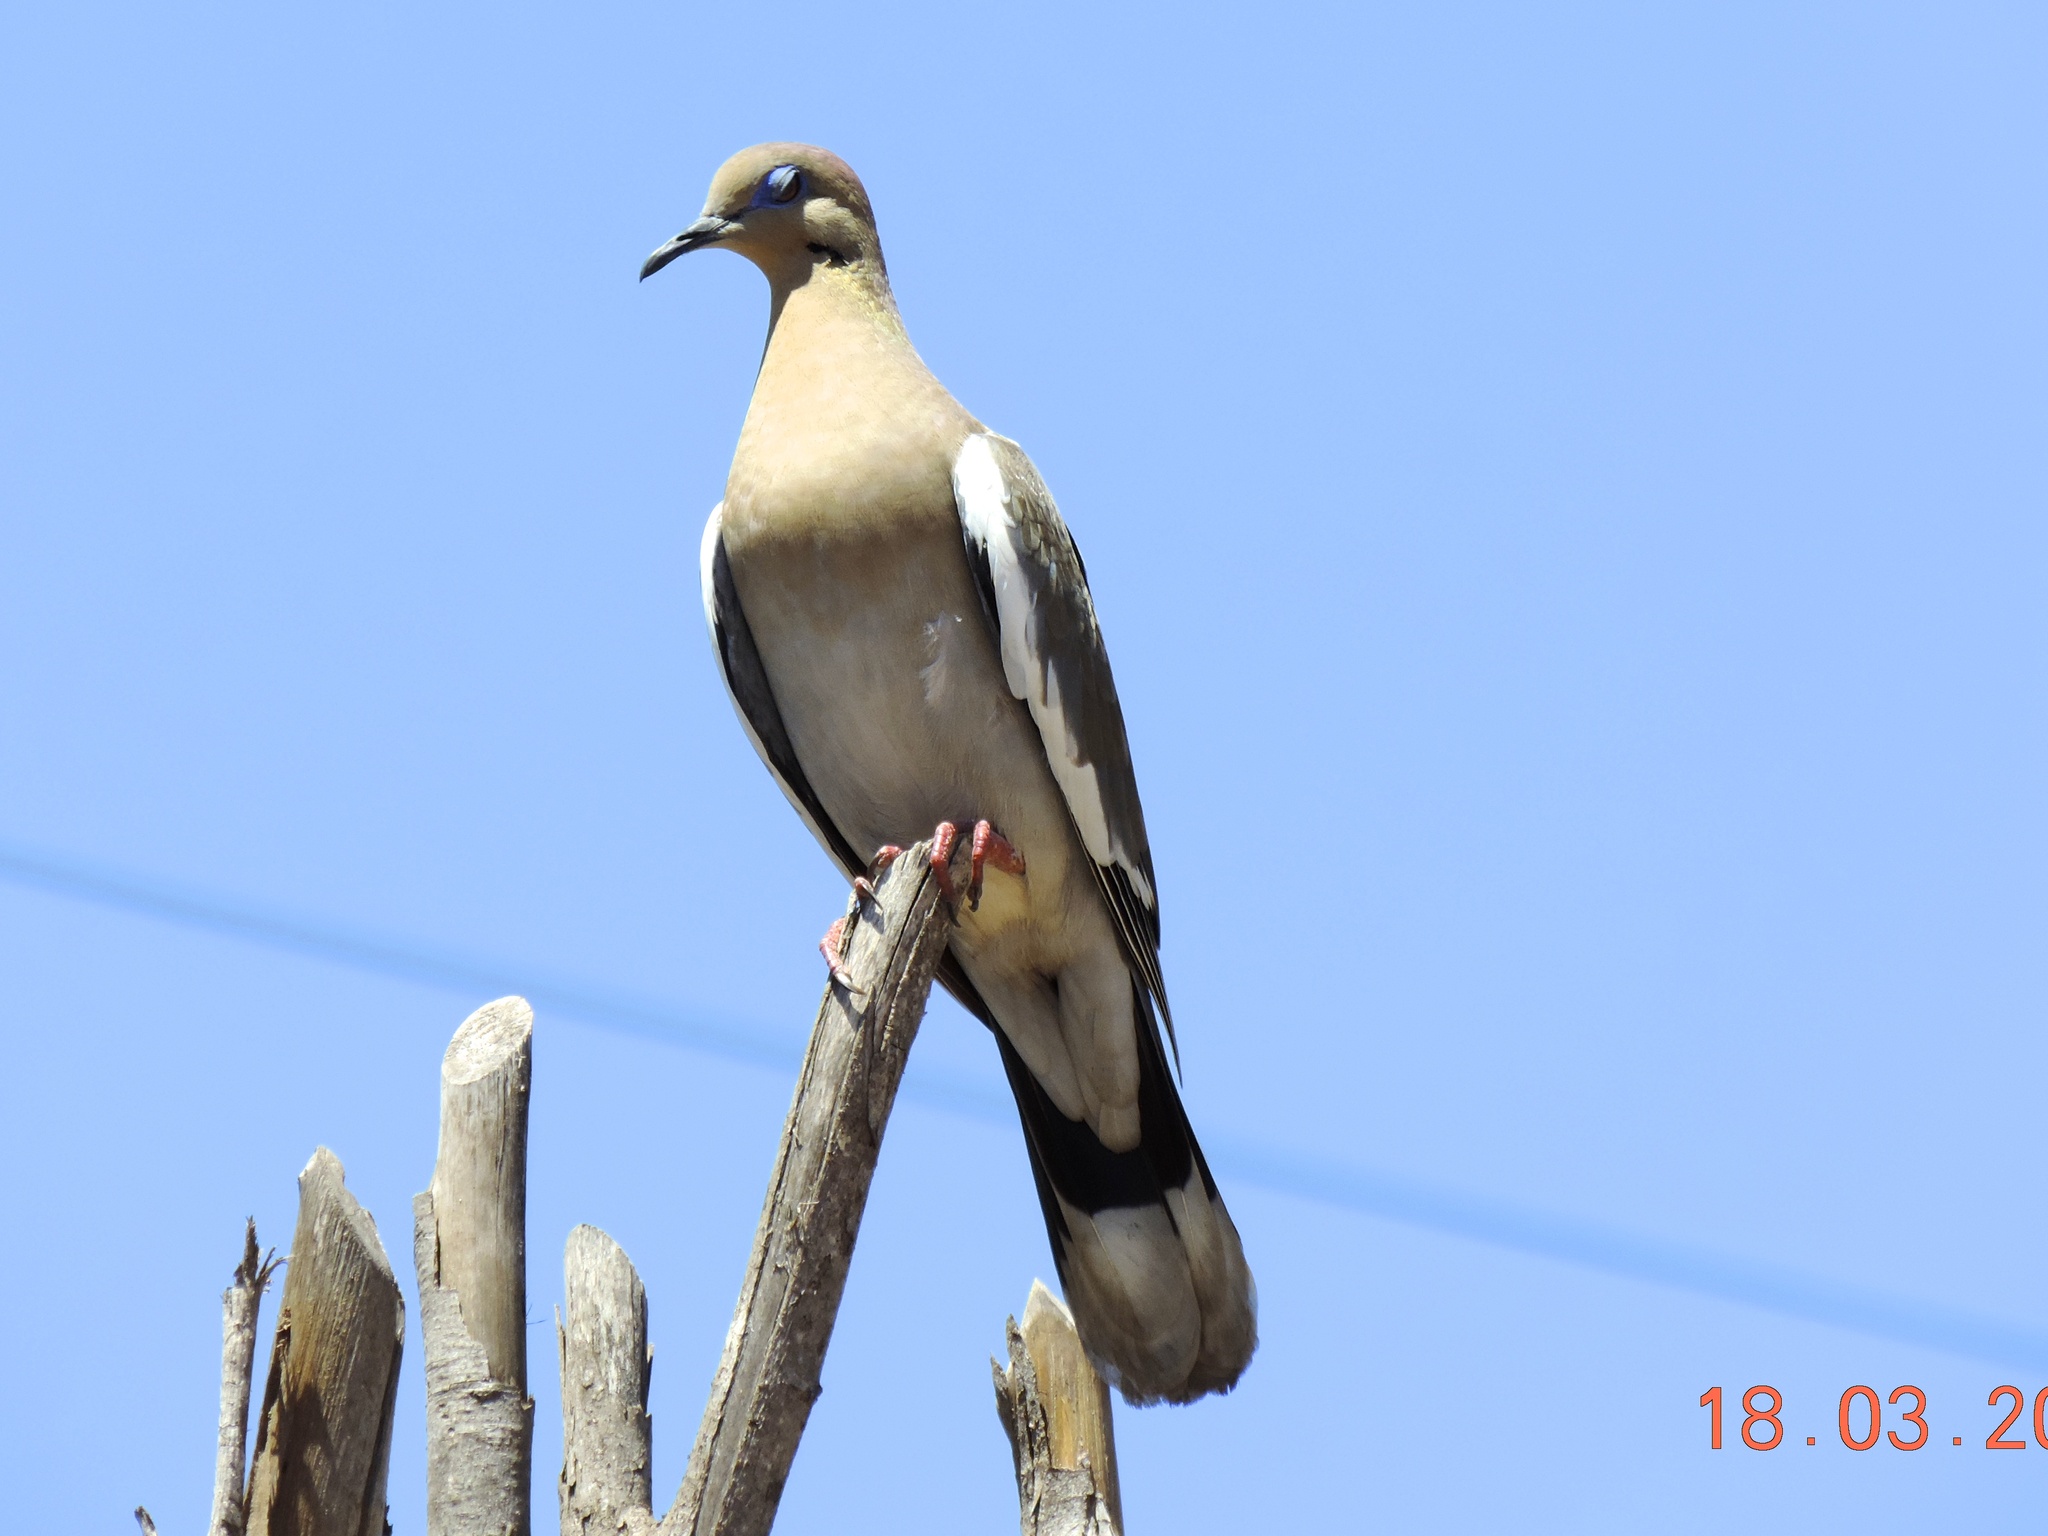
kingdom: Animalia
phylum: Chordata
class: Aves
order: Columbiformes
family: Columbidae
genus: Zenaida
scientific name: Zenaida asiatica
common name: White-winged dove
